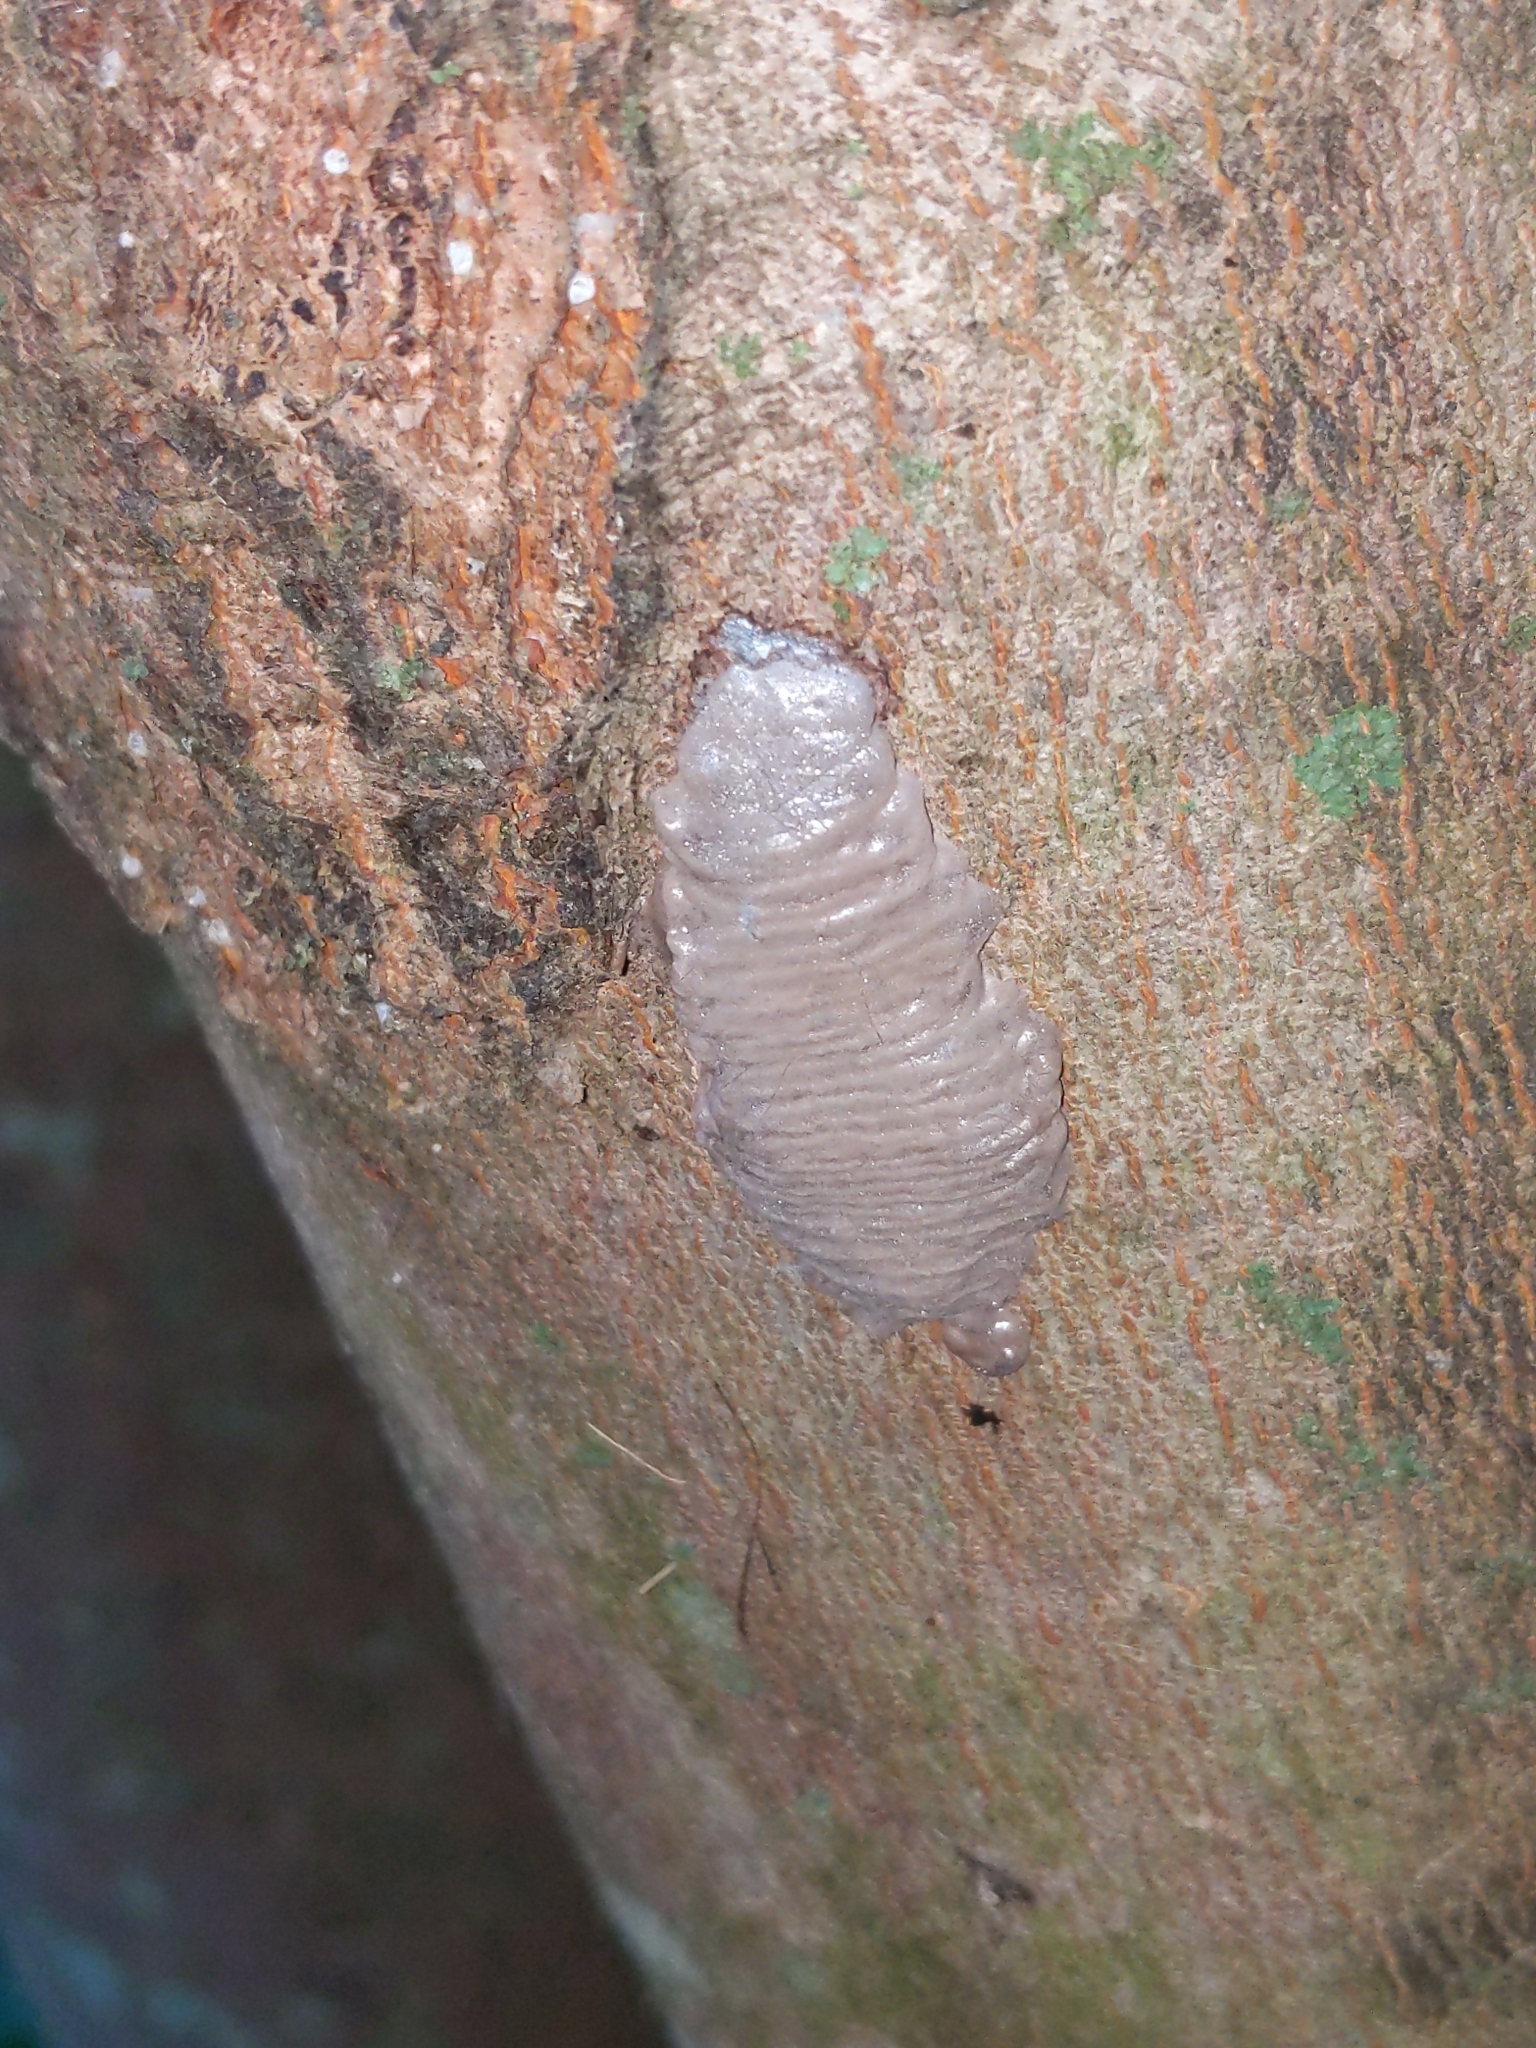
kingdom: Animalia
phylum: Arthropoda
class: Insecta
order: Hemiptera
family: Fulgoridae
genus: Lycorma
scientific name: Lycorma delicatula
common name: Spotted lanternfly
